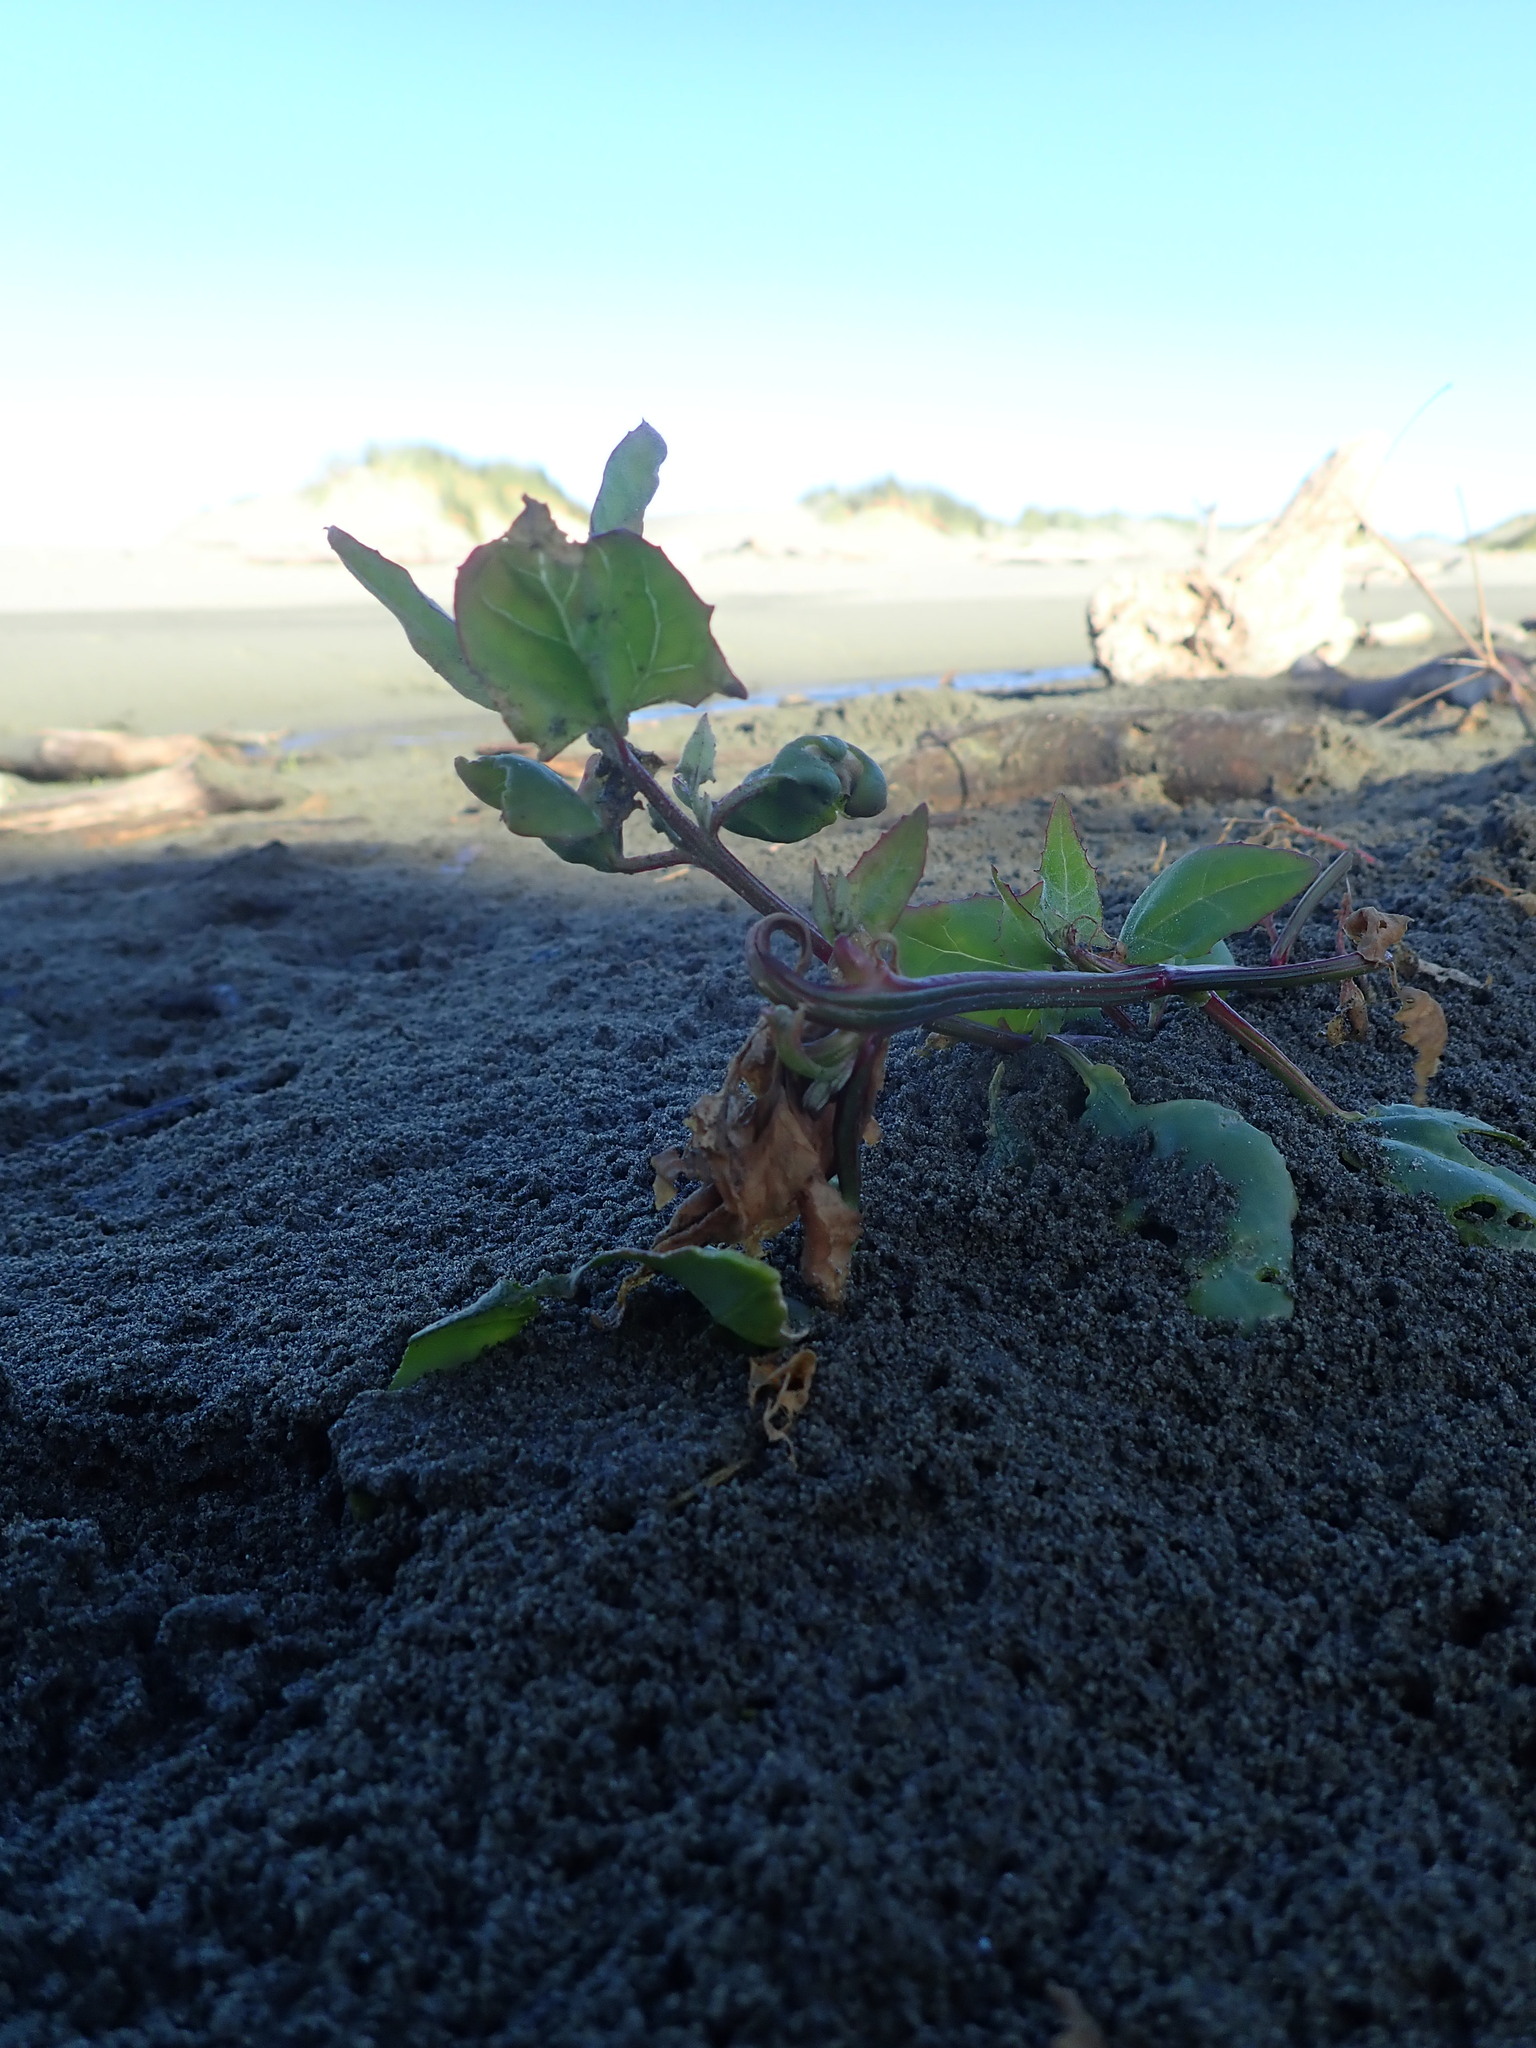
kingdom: Plantae
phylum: Tracheophyta
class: Magnoliopsida
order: Caryophyllales
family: Amaranthaceae
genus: Atriplex
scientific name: Atriplex prostrata
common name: Spear-leaved orache
